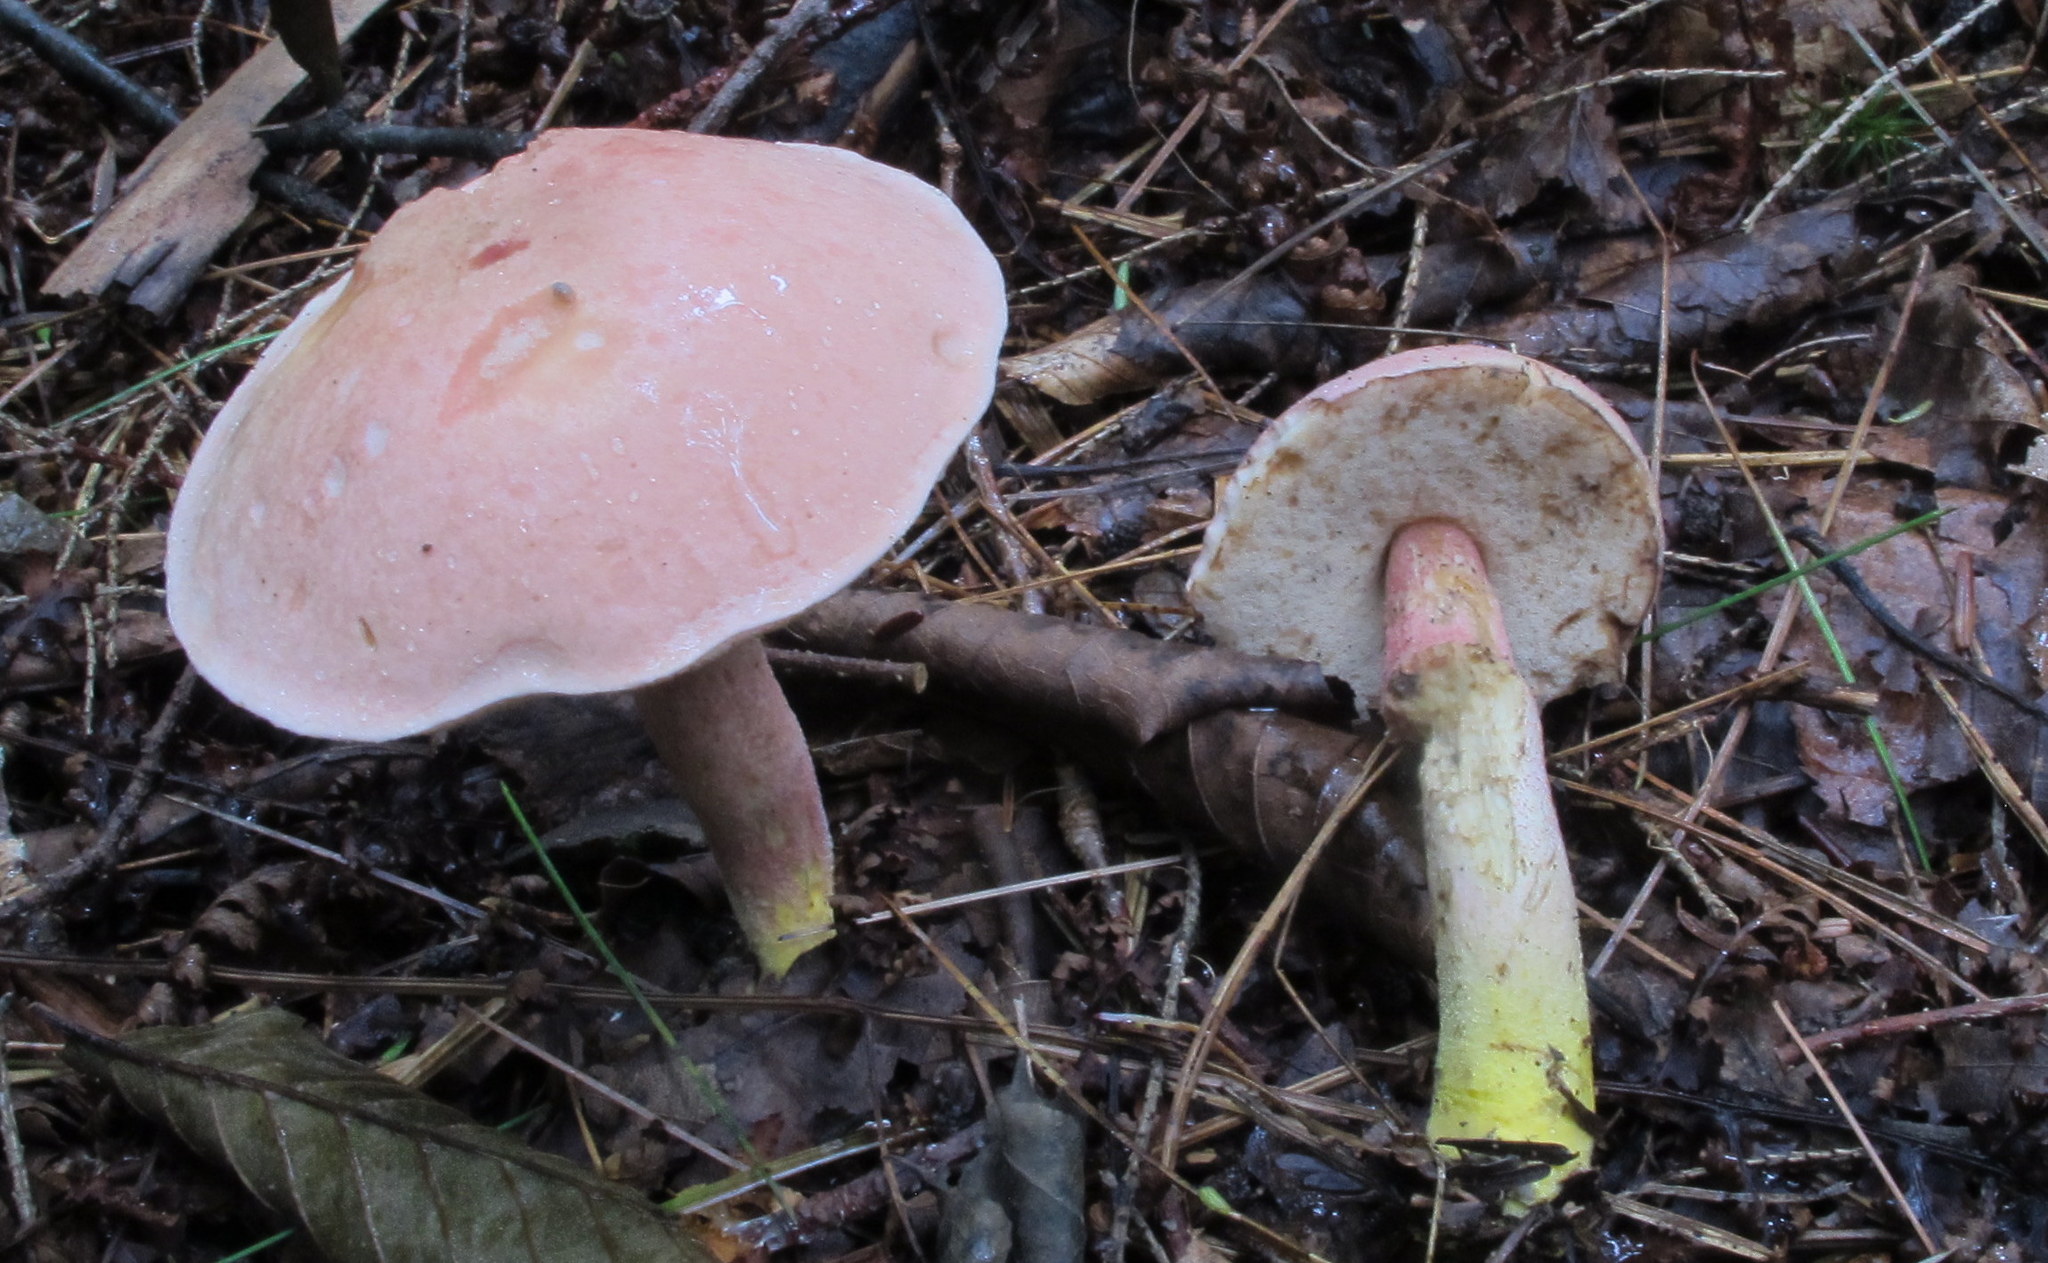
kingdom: Fungi
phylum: Basidiomycota
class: Agaricomycetes
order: Boletales
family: Boletaceae
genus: Harrya
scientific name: Harrya chromipes
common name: Chrome-footed bolete
